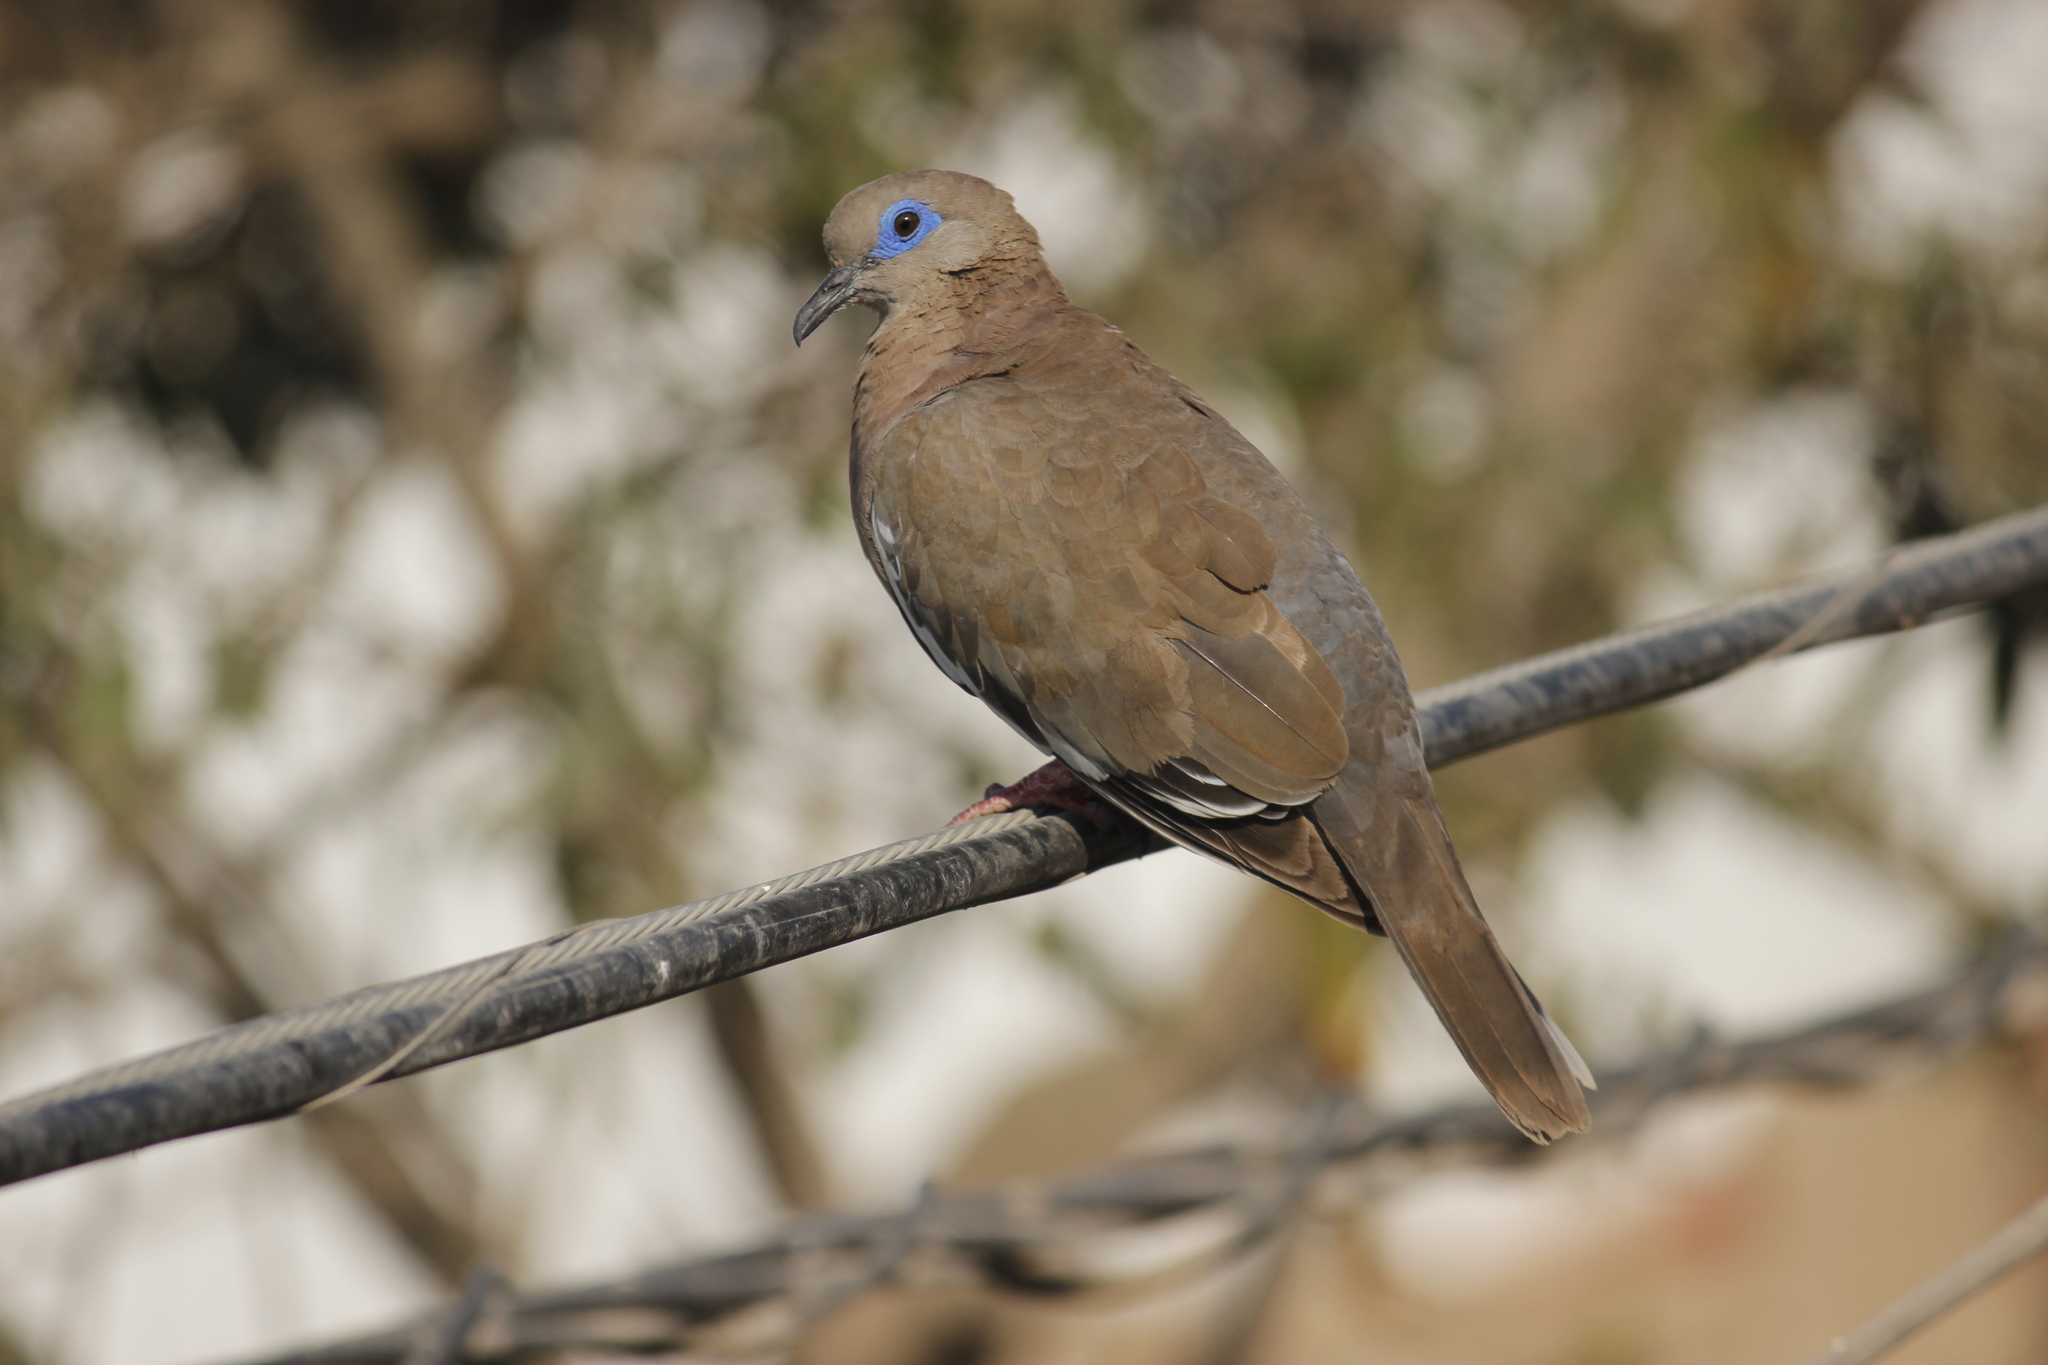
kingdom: Animalia
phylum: Chordata
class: Aves
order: Columbiformes
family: Columbidae
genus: Zenaida
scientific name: Zenaida meloda
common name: West peruvian dove
